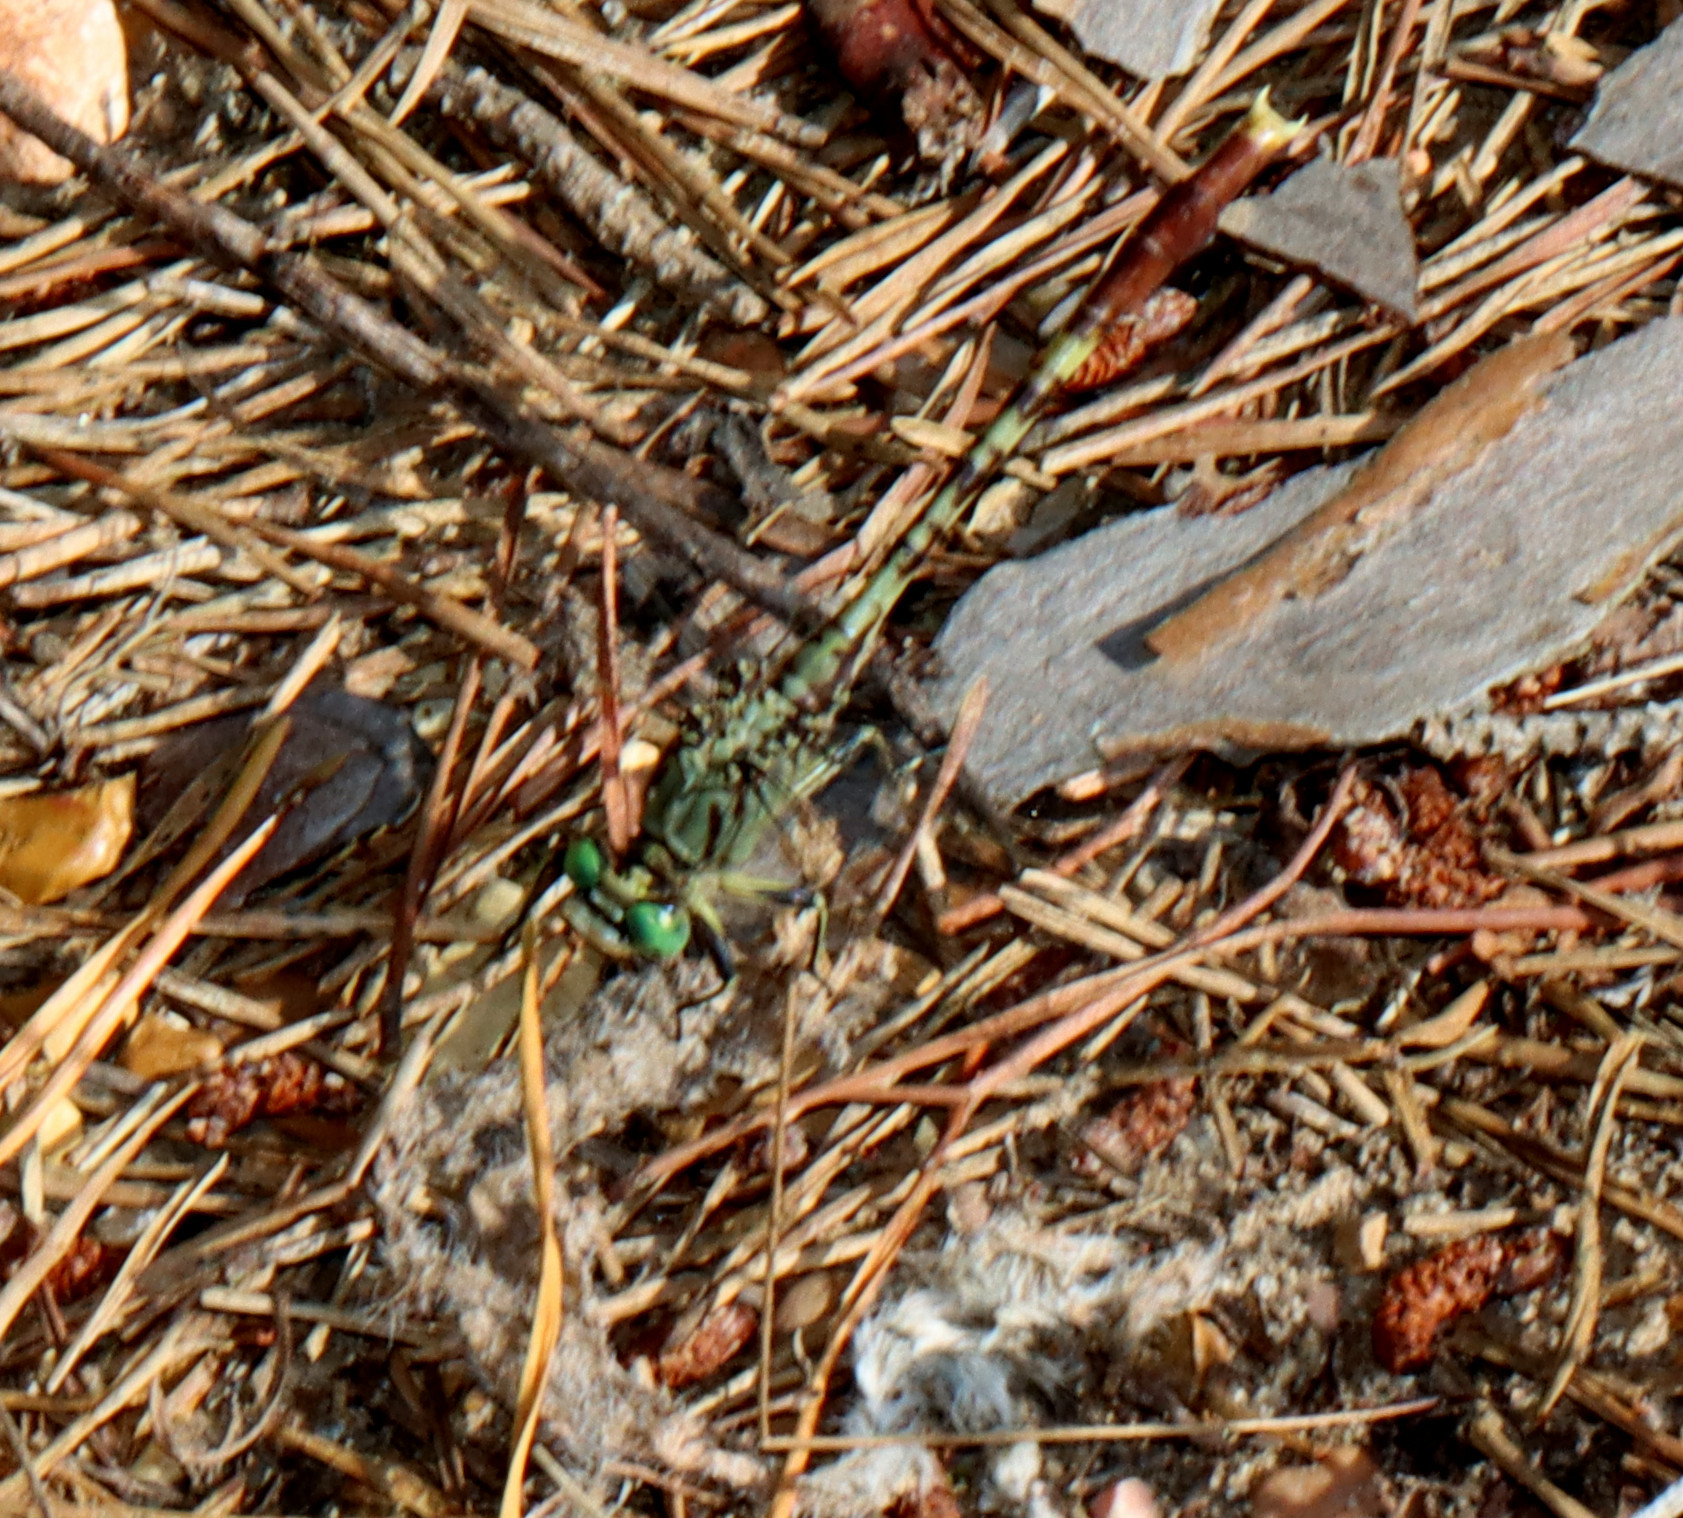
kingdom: Animalia
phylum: Arthropoda
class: Insecta
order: Odonata
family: Gomphidae
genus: Arigomphus
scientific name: Arigomphus submedianus
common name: Jade clubtail
